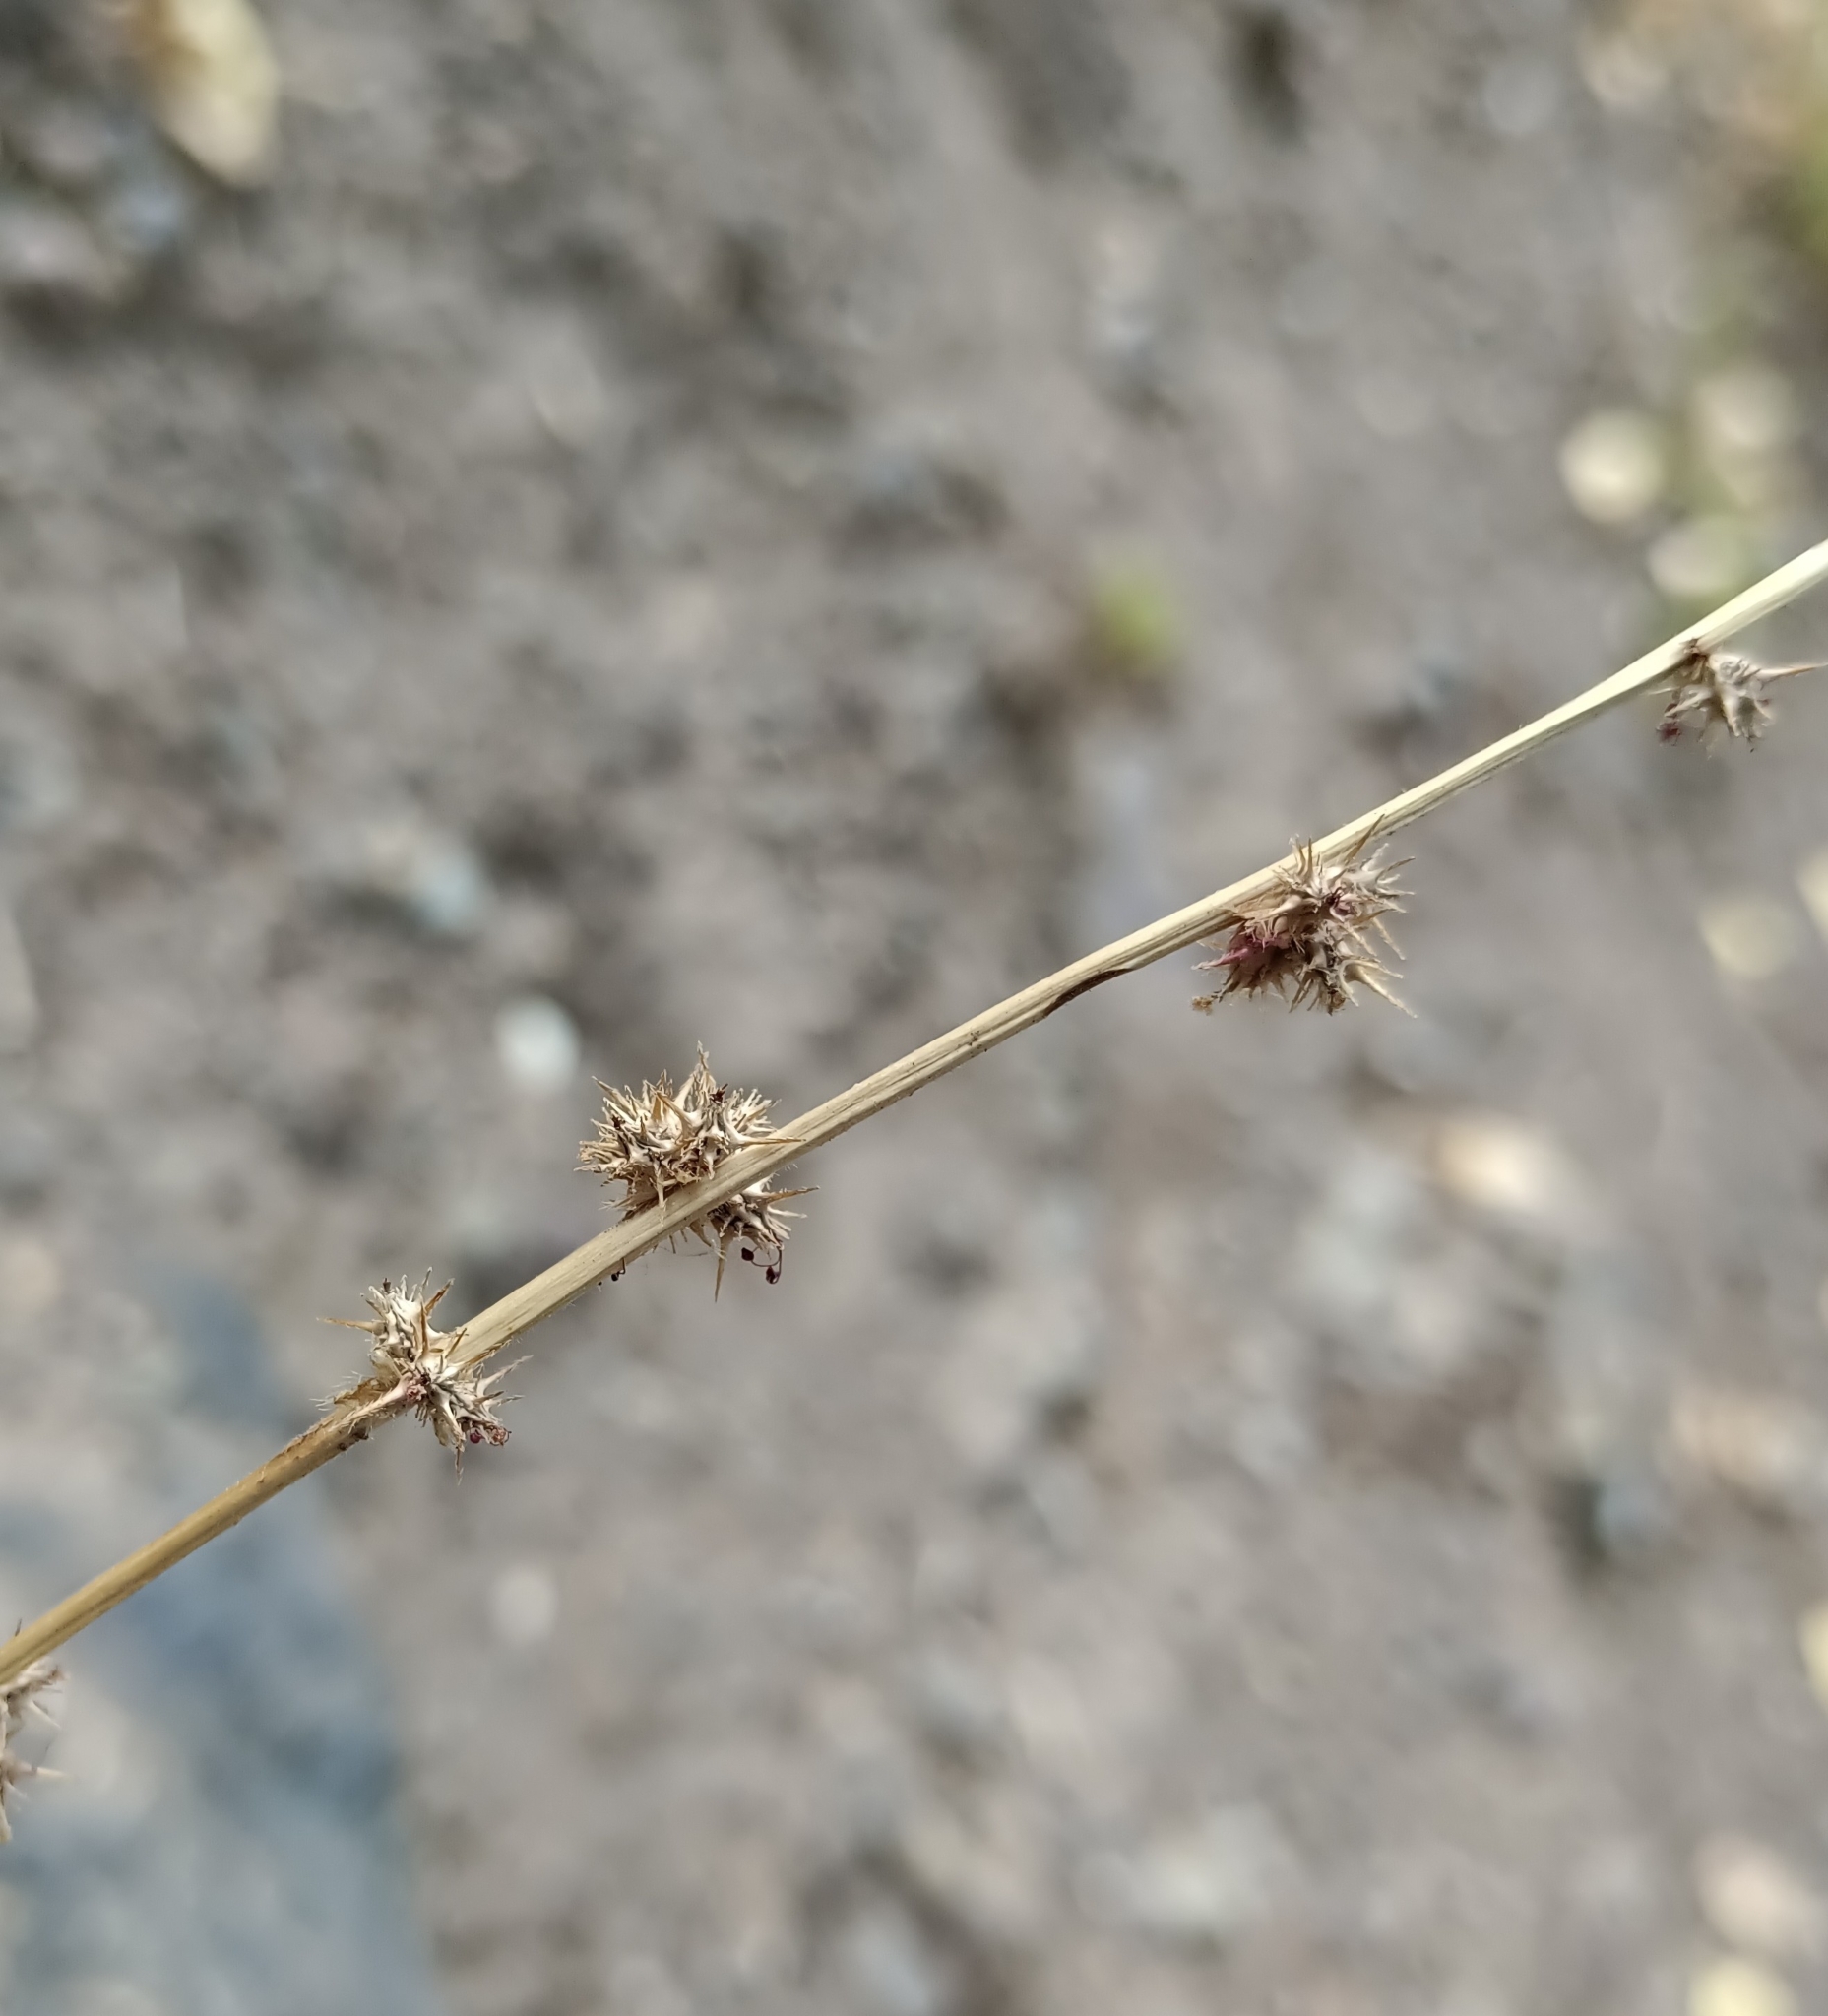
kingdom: Plantae
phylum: Tracheophyta
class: Magnoliopsida
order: Rosales
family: Rosaceae
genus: Acaena
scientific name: Acaena pinnatifida
